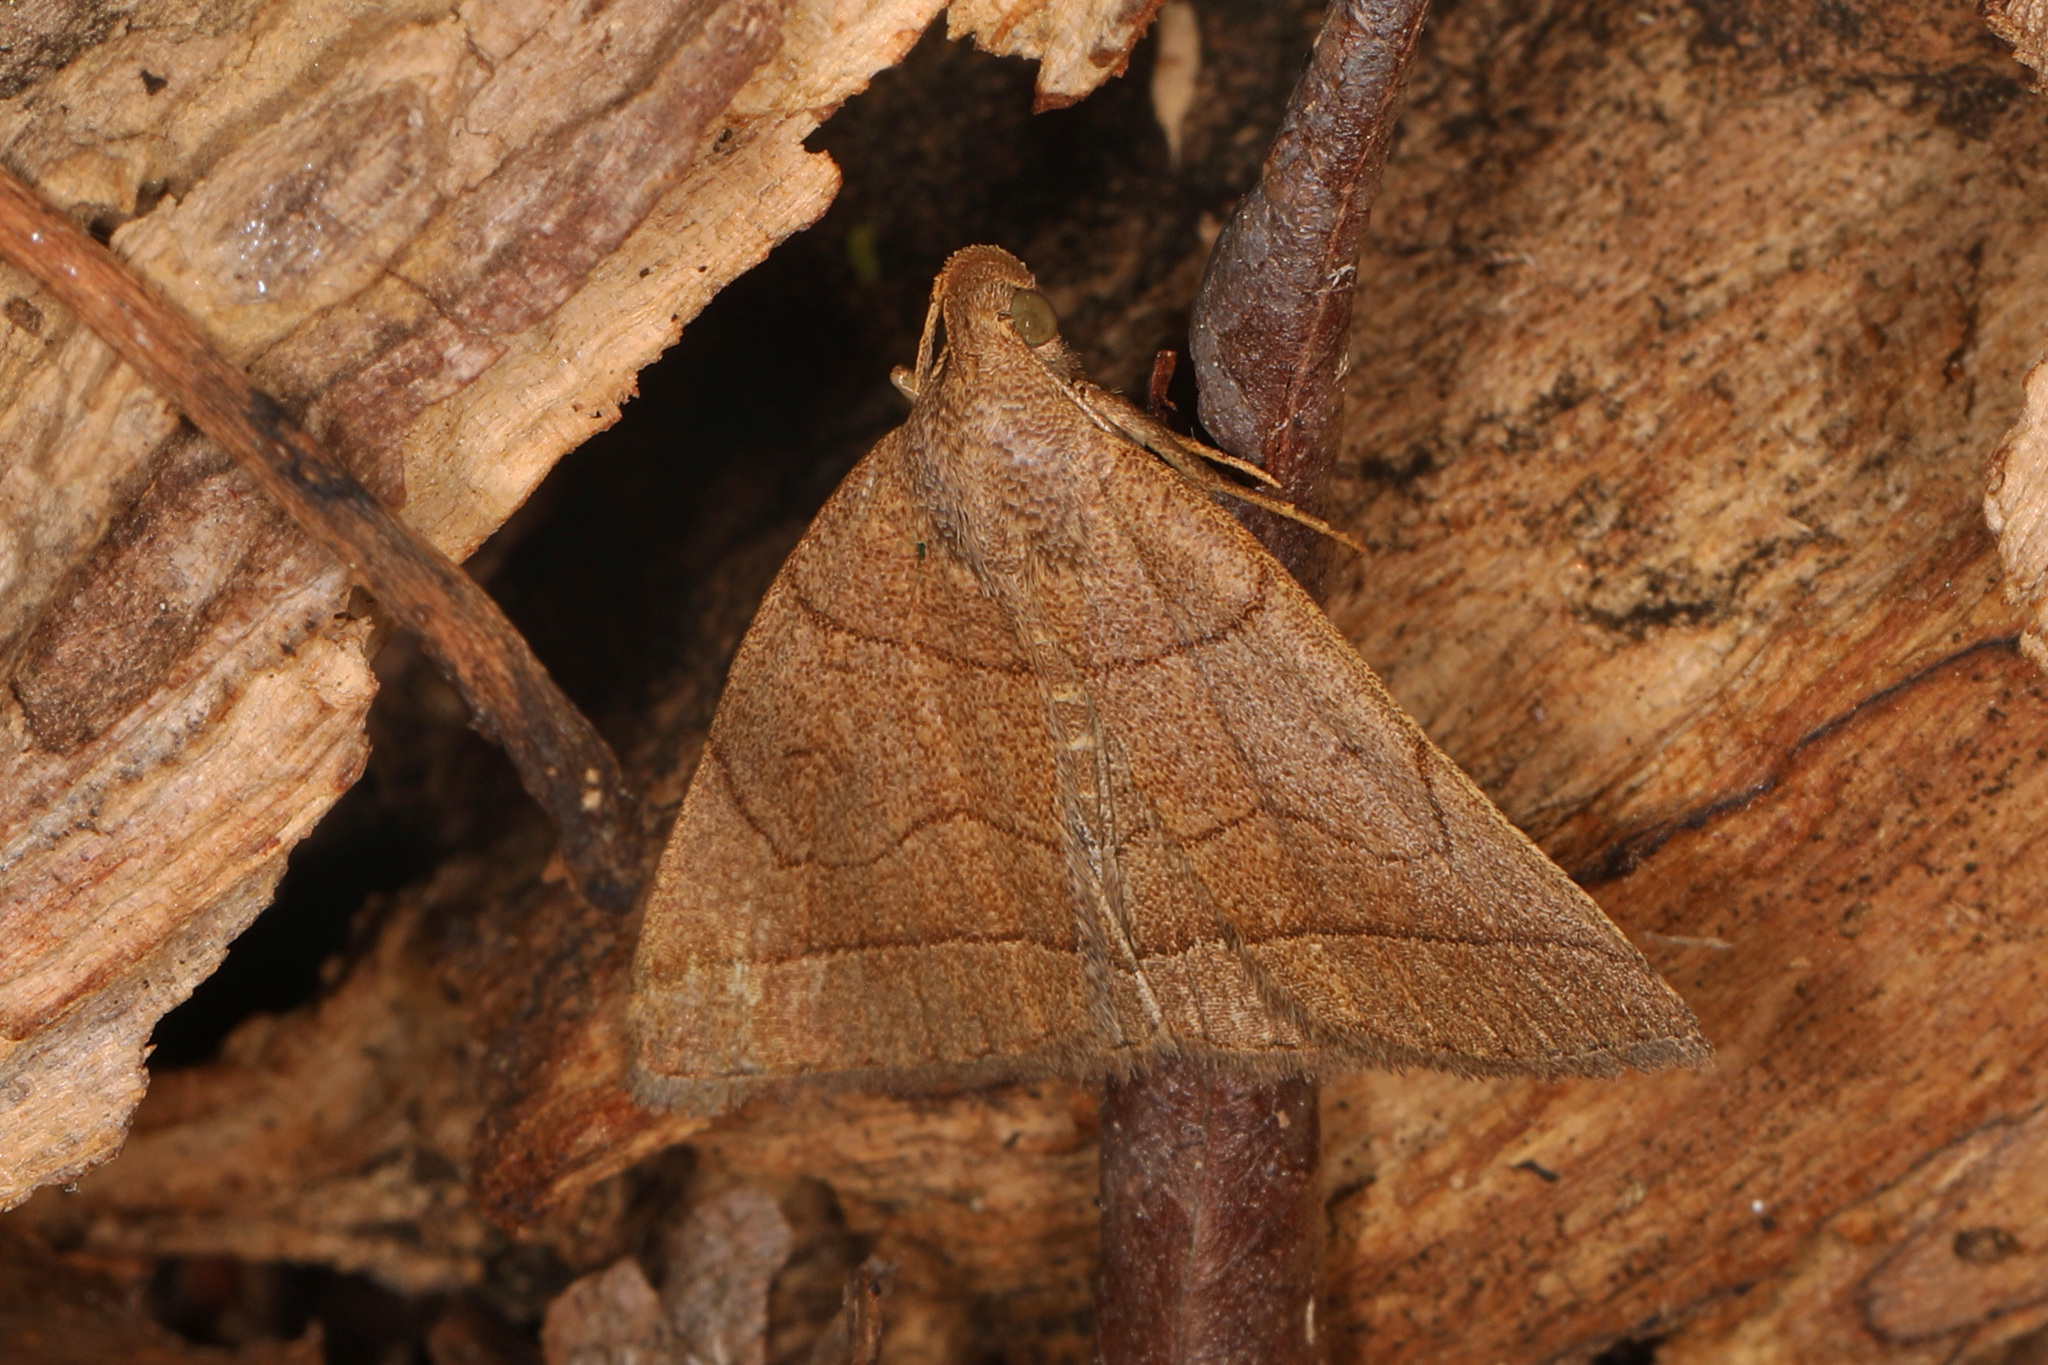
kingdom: Animalia
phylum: Arthropoda
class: Insecta
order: Lepidoptera
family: Erebidae
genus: Zanclognatha
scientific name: Zanclognatha cruralis
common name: Early fan-foot
